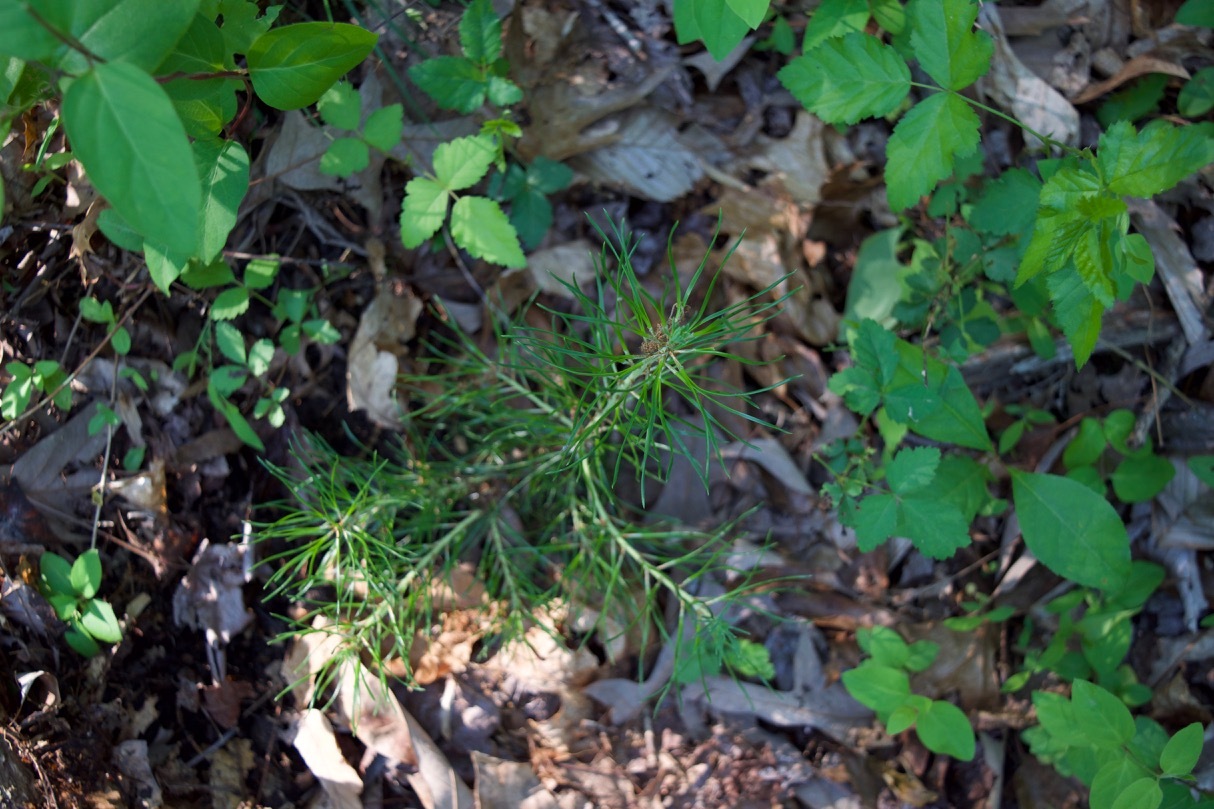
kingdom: Plantae
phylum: Tracheophyta
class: Pinopsida
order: Pinales
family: Pinaceae
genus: Pinus
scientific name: Pinus virginiana
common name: Scrub pine
